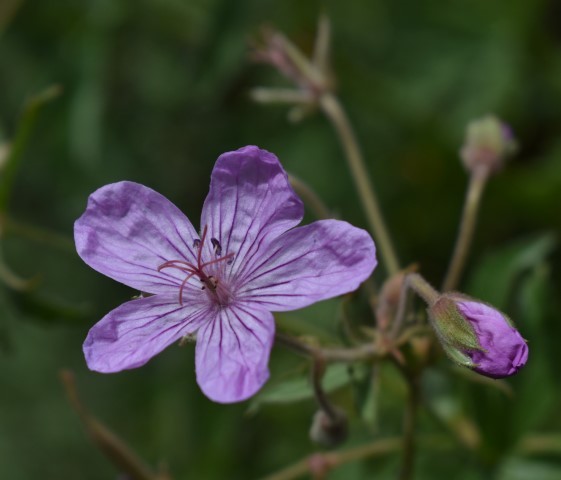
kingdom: Plantae
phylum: Tracheophyta
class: Magnoliopsida
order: Geraniales
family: Geraniaceae
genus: Geranium
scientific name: Geranium viscosissimum
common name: Purple geranium
